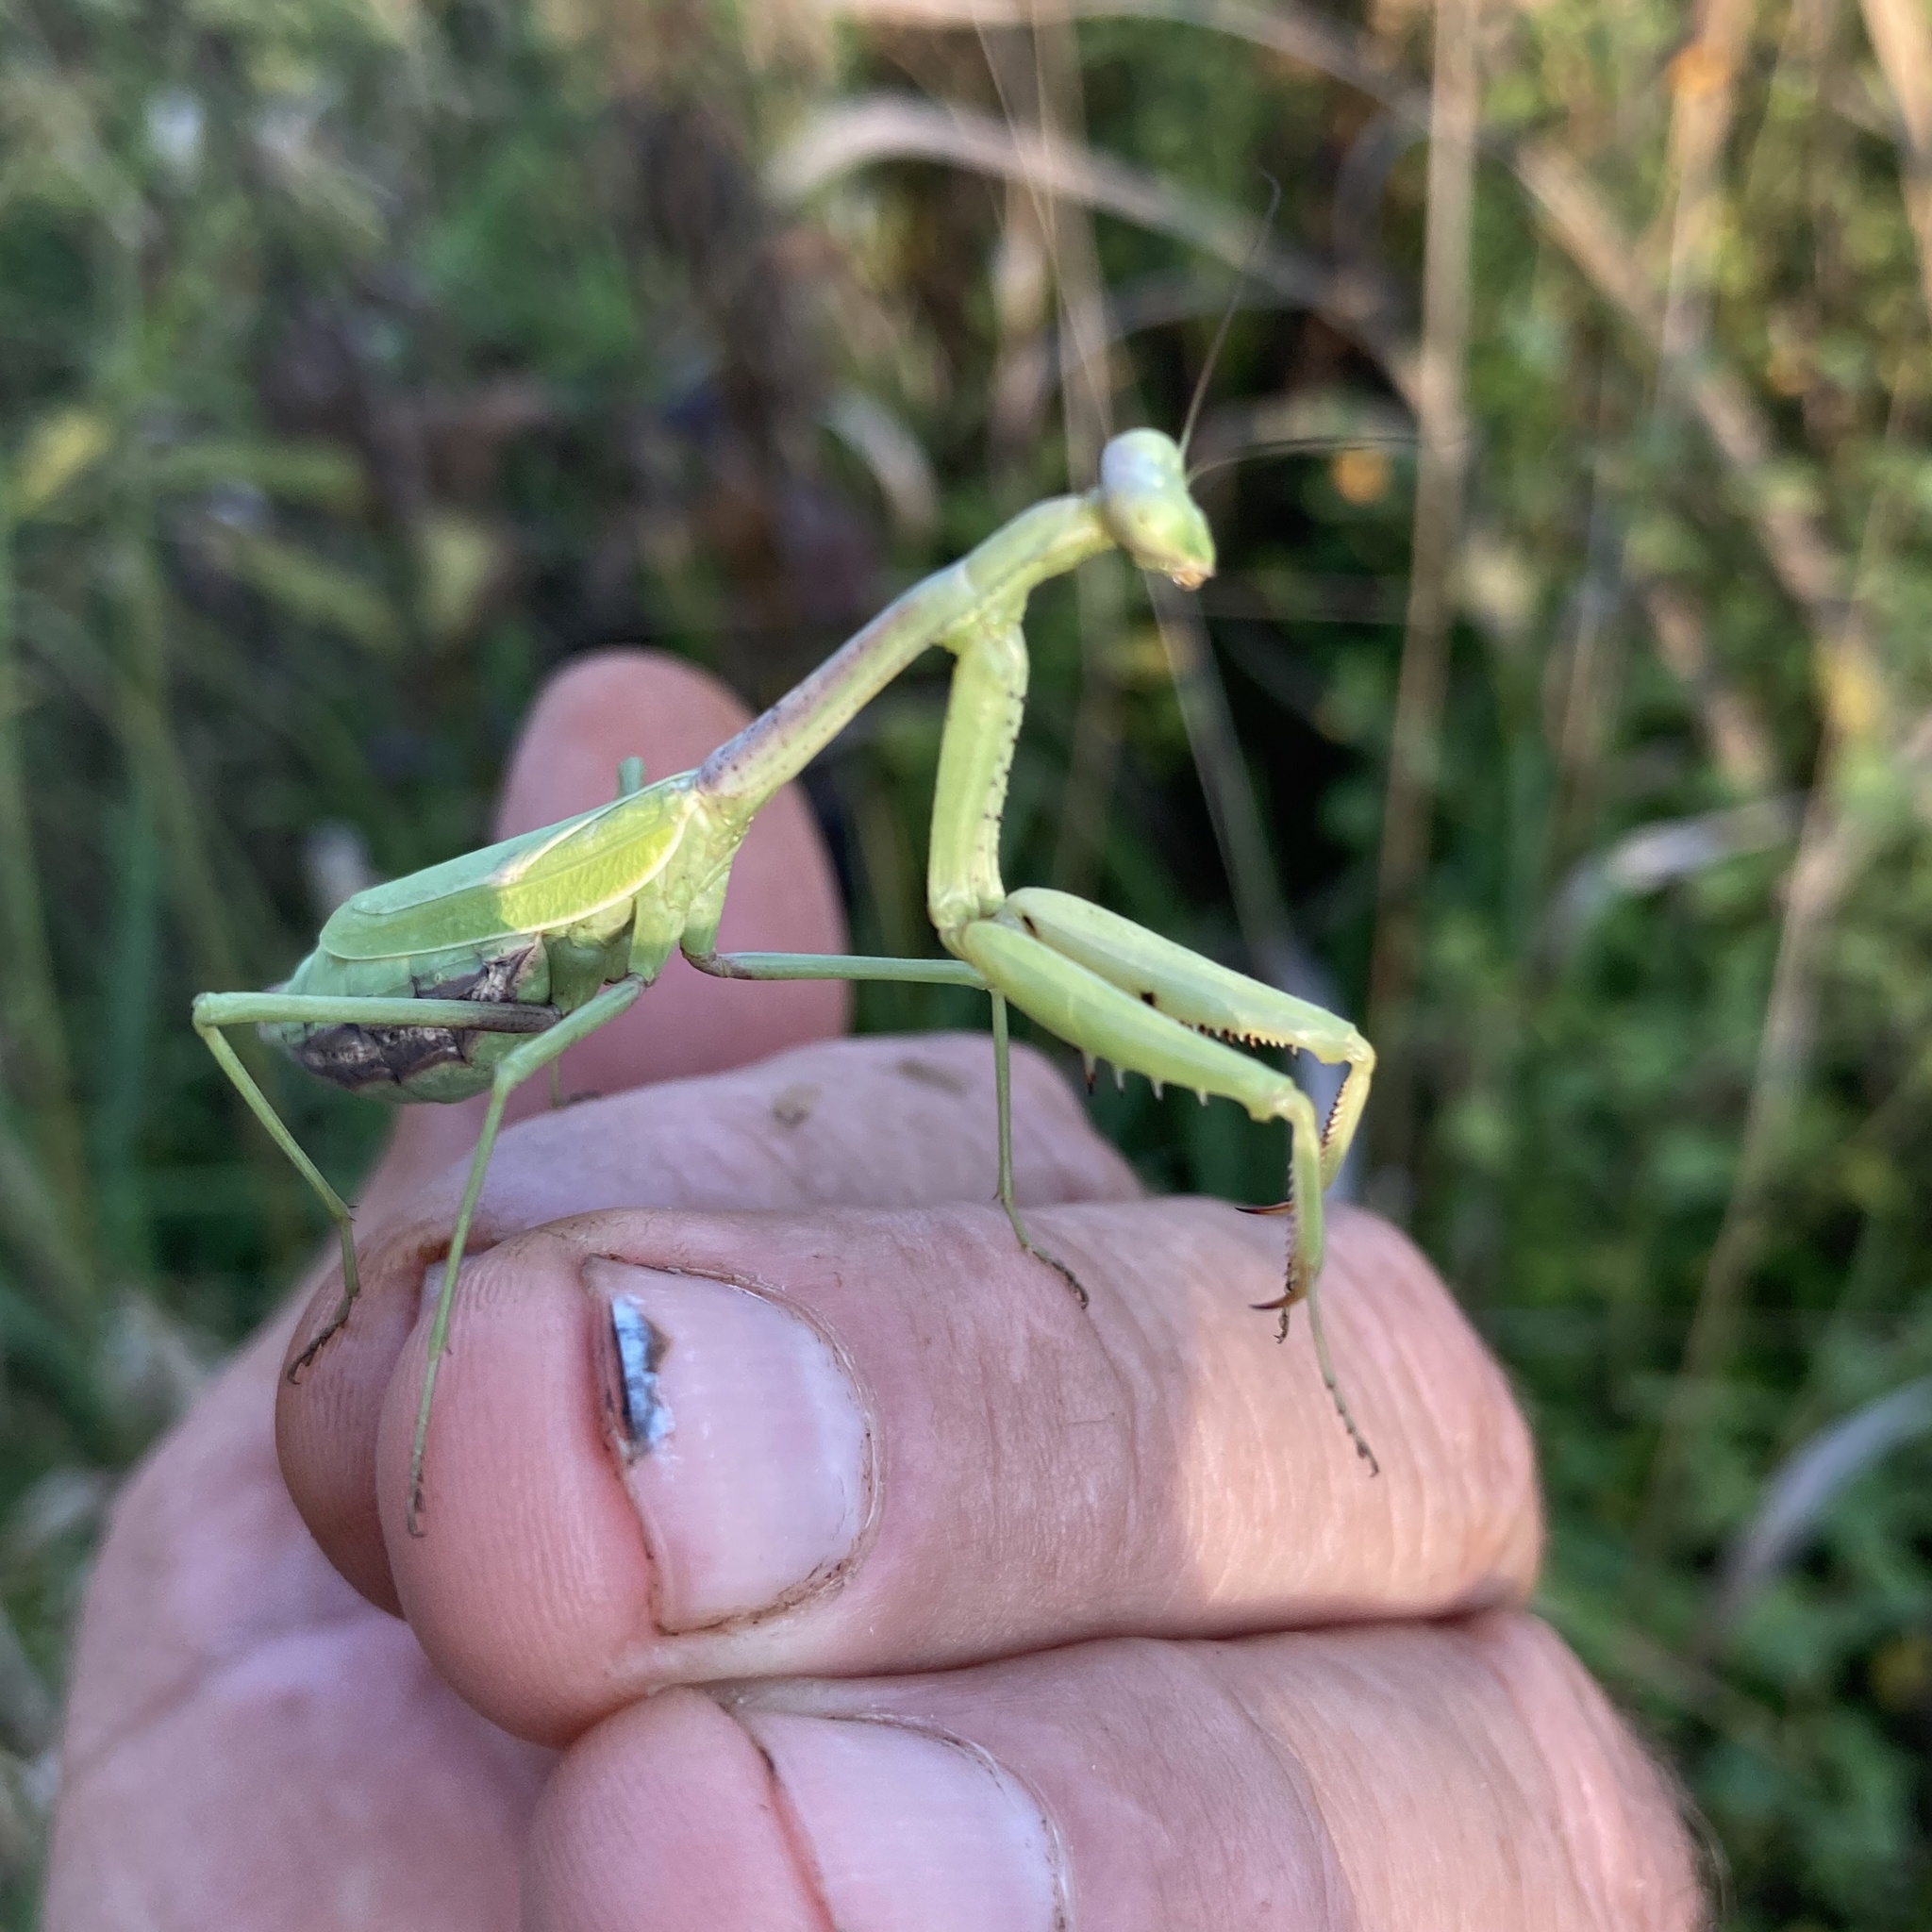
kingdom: Animalia
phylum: Arthropoda
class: Insecta
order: Mantodea
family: Mantidae
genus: Stagmomantis
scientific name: Stagmomantis carolina
